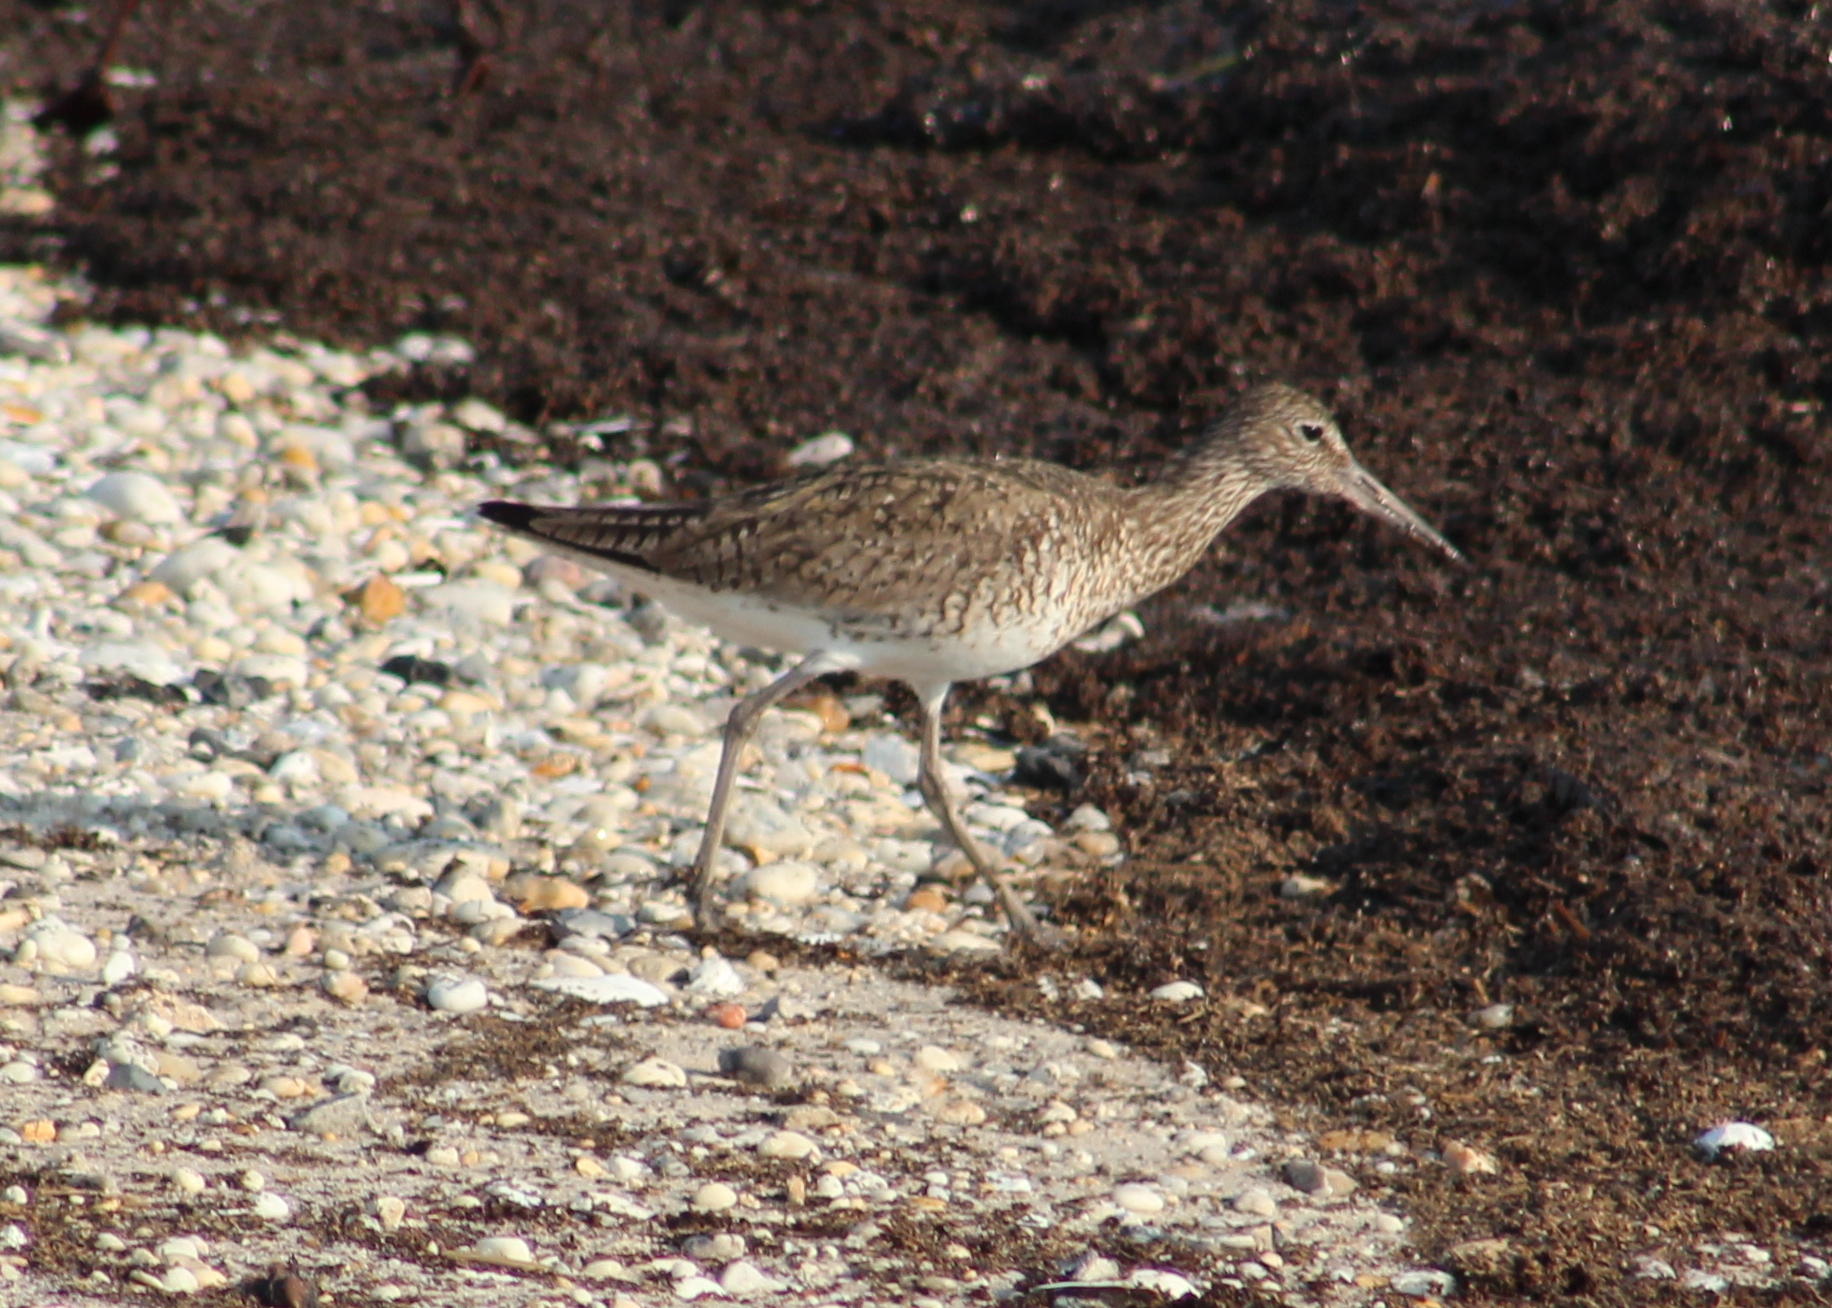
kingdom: Animalia
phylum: Chordata
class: Aves
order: Charadriiformes
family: Scolopacidae
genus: Tringa
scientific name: Tringa semipalmata
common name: Willet
